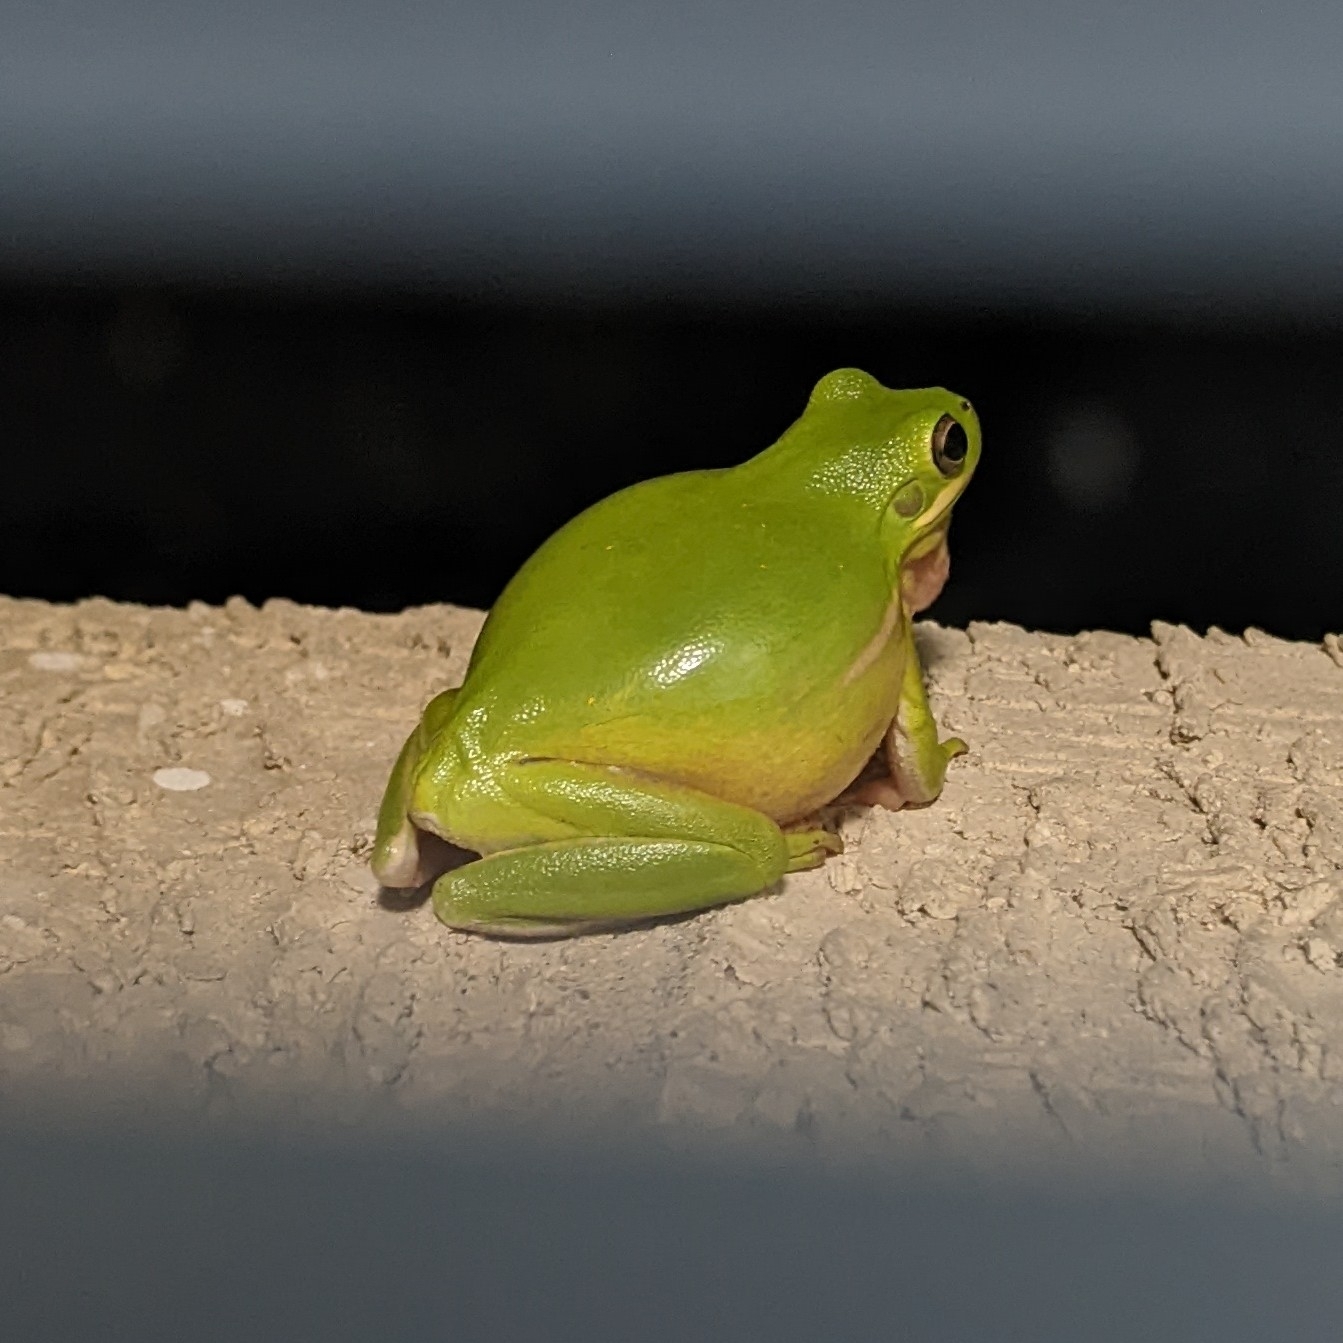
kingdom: Animalia
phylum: Chordata
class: Amphibia
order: Anura
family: Hylidae
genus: Dryophytes
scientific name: Dryophytes cinereus
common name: Green treefrog
